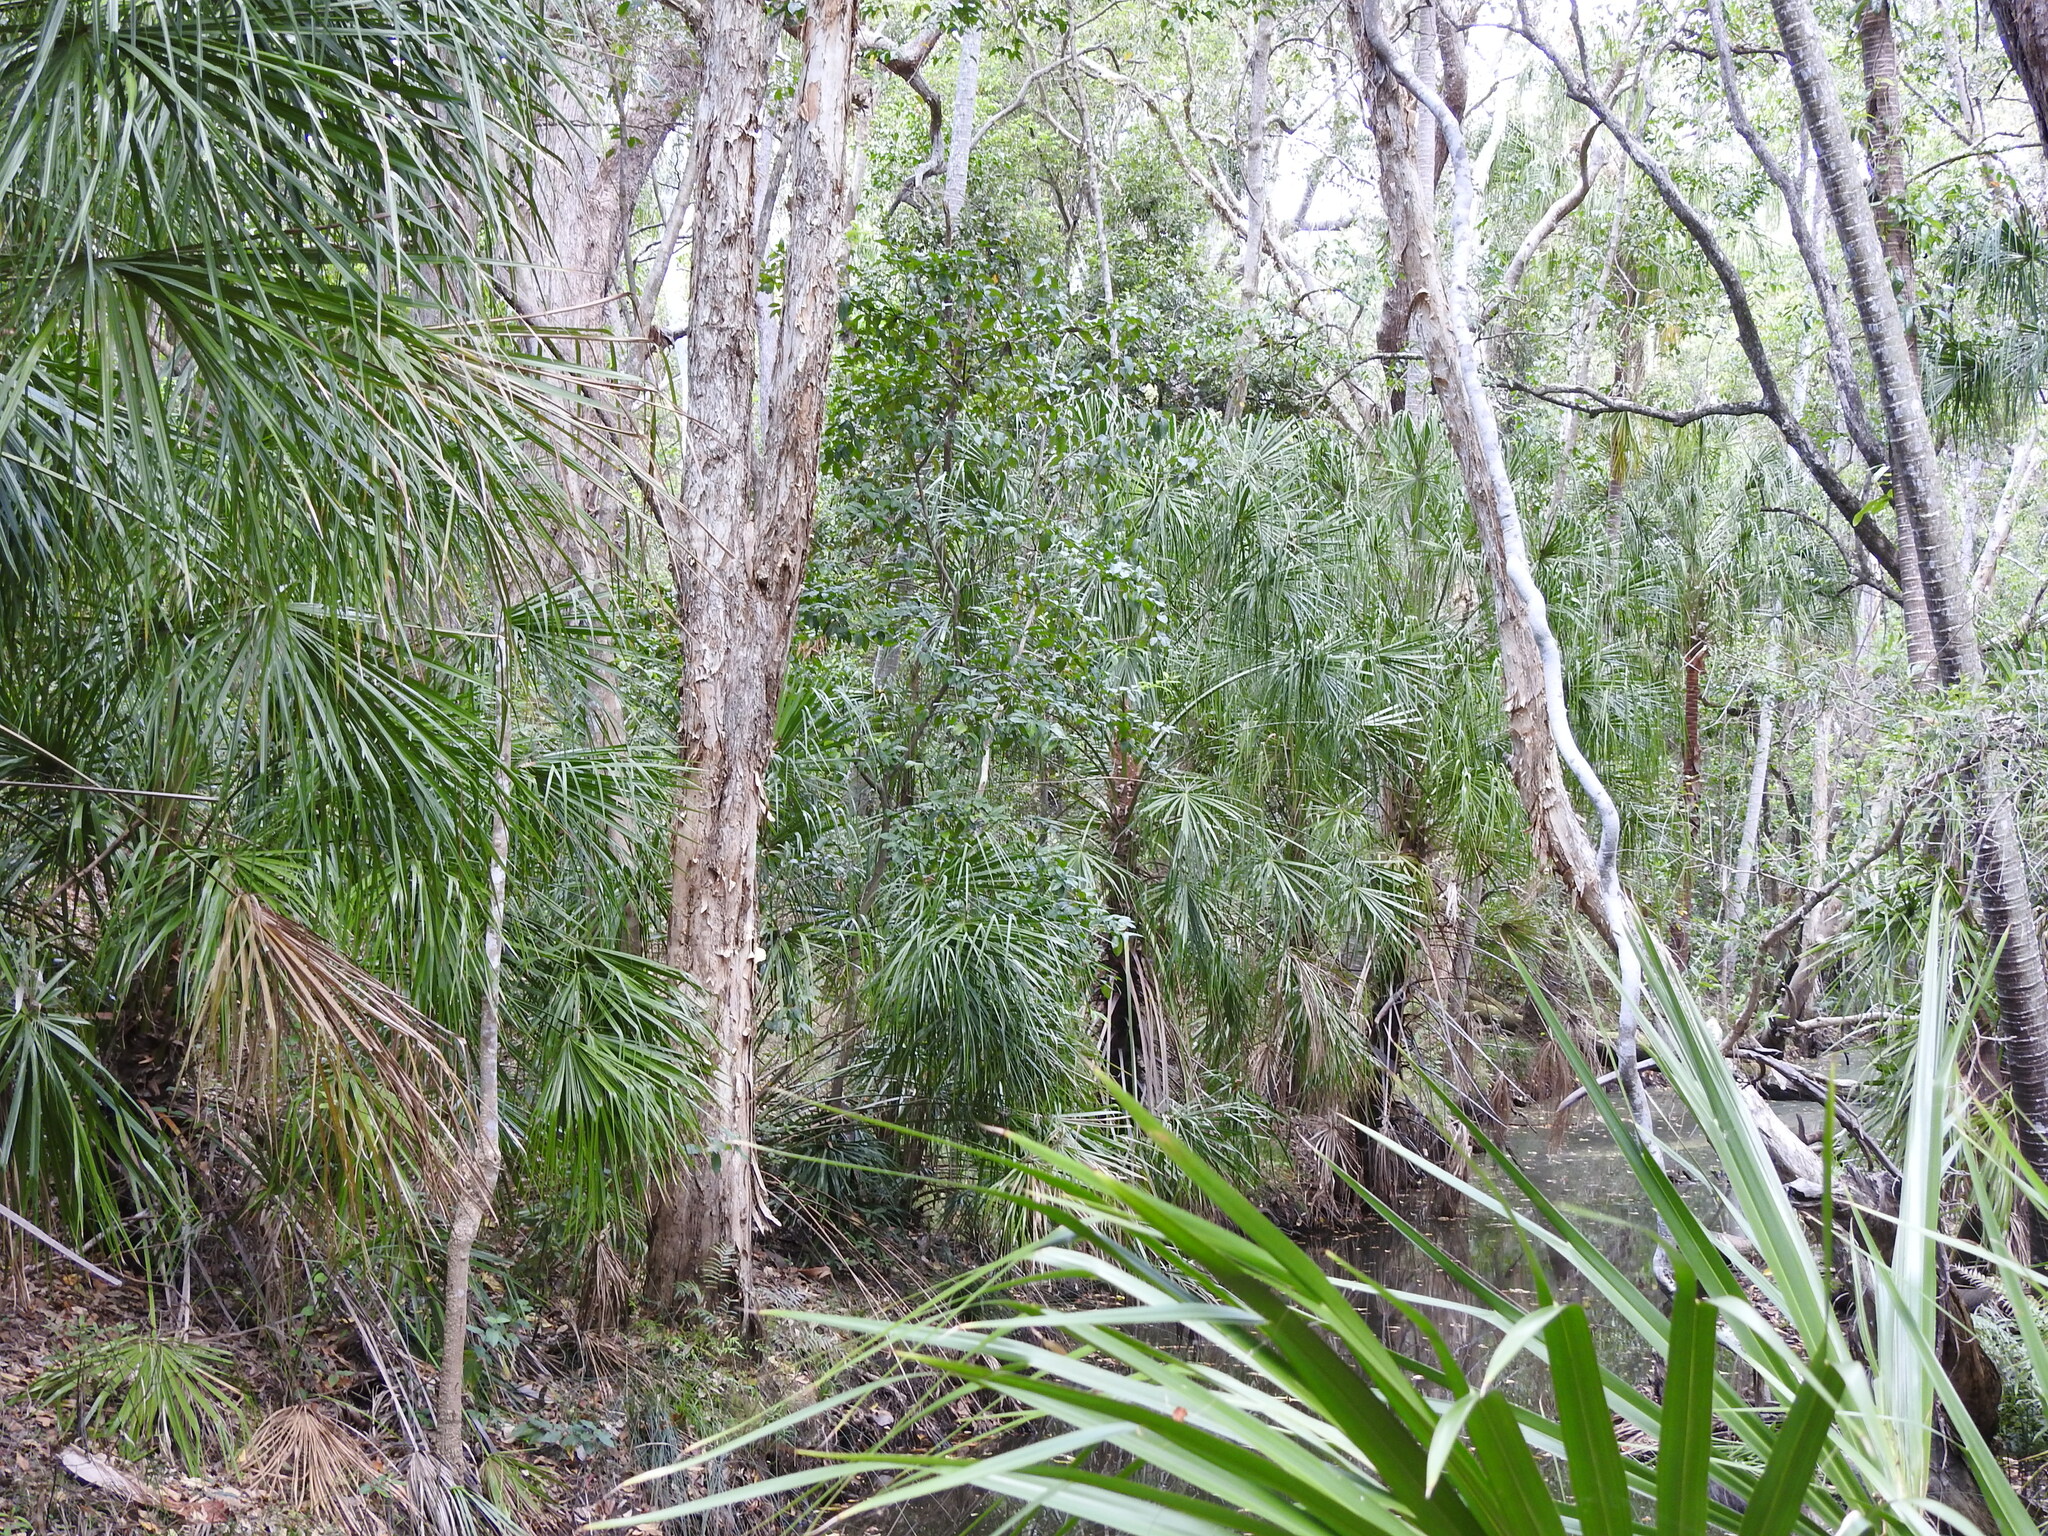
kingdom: Plantae
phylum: Tracheophyta
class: Liliopsida
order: Arecales
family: Arecaceae
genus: Livistona
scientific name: Livistona decora
